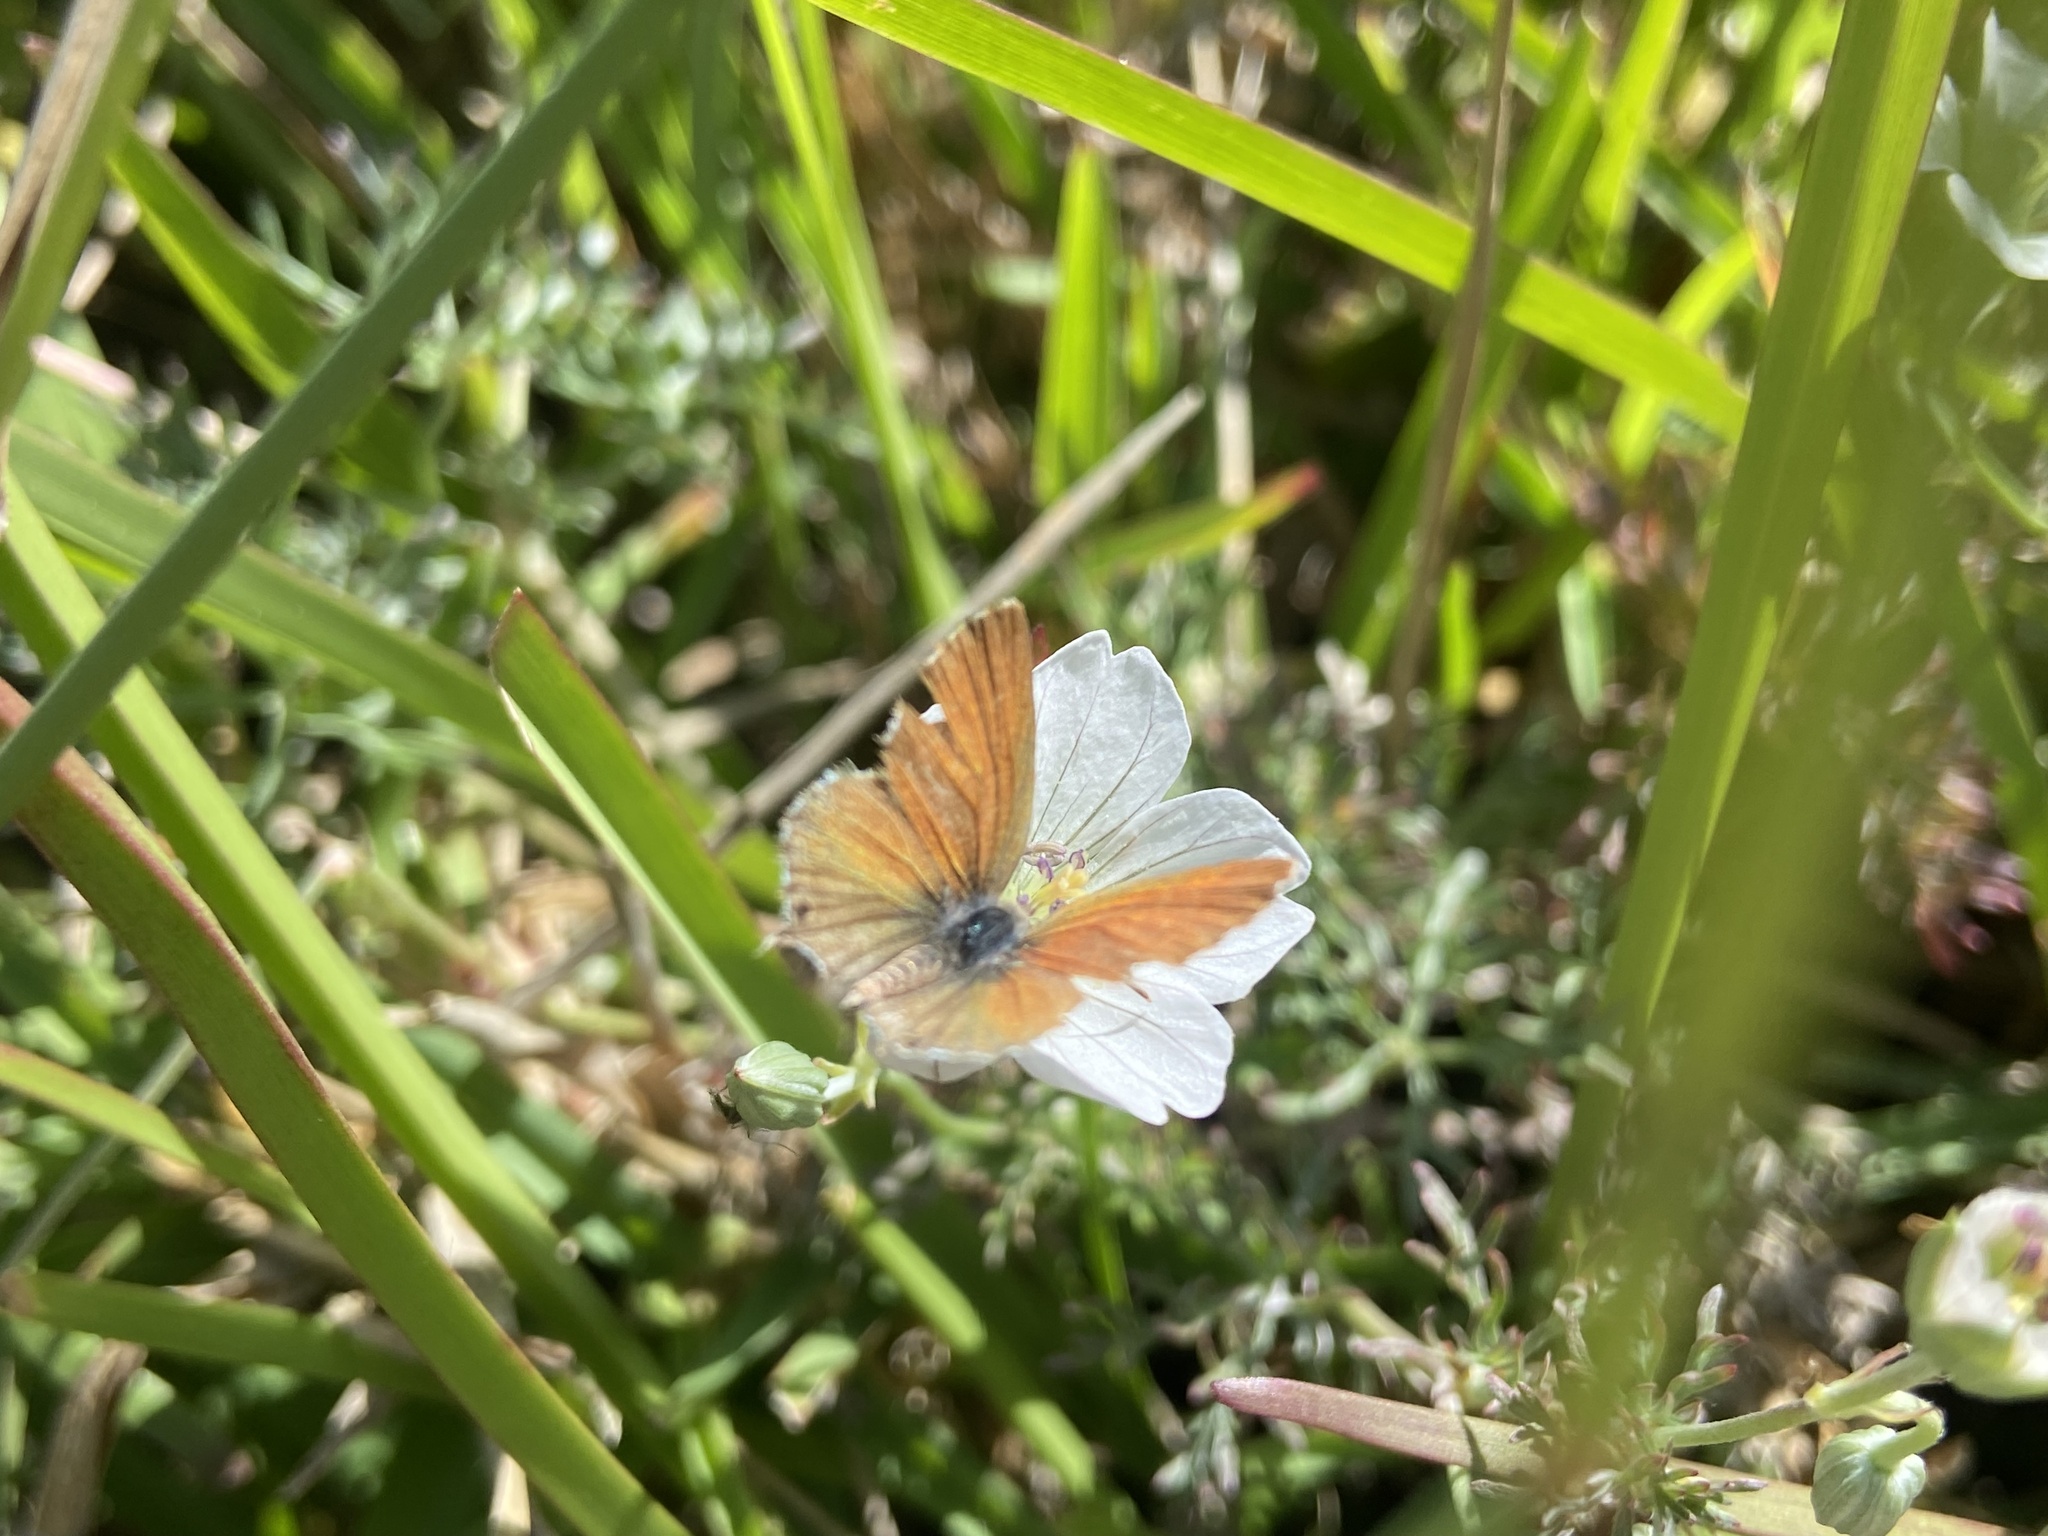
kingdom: Animalia
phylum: Arthropoda
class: Insecta
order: Lepidoptera
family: Lycaenidae
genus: Cacyreus
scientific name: Cacyreus fracta
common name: Water bronze
